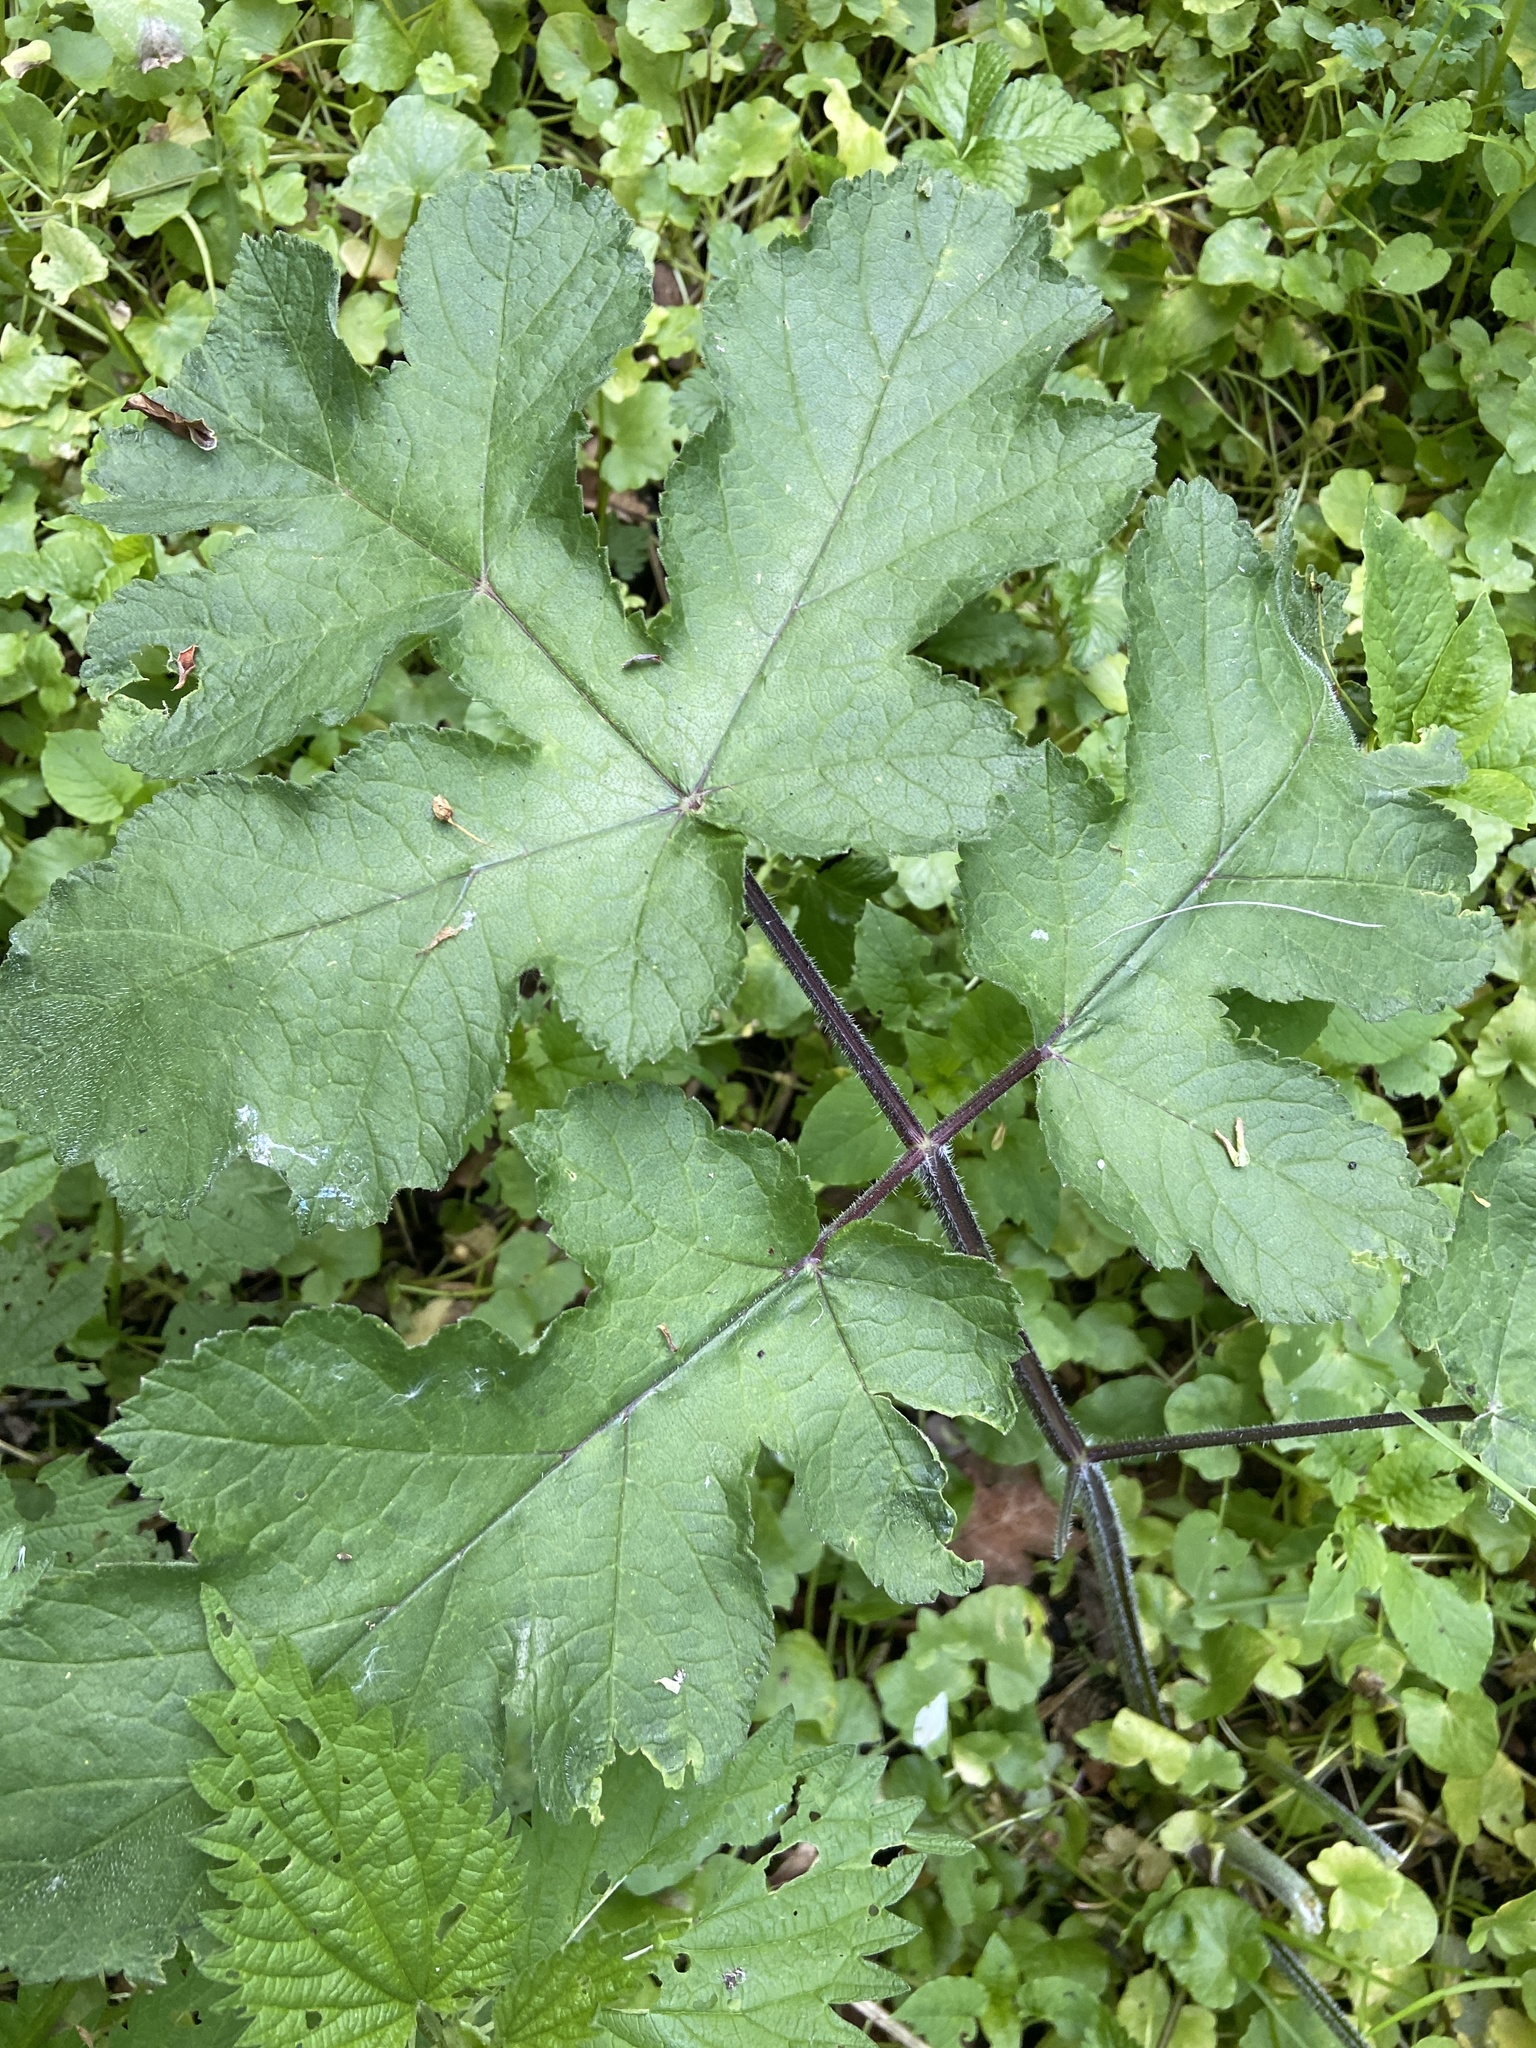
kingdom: Plantae
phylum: Tracheophyta
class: Magnoliopsida
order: Apiales
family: Apiaceae
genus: Heracleum
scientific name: Heracleum sphondylium
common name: Hogweed
